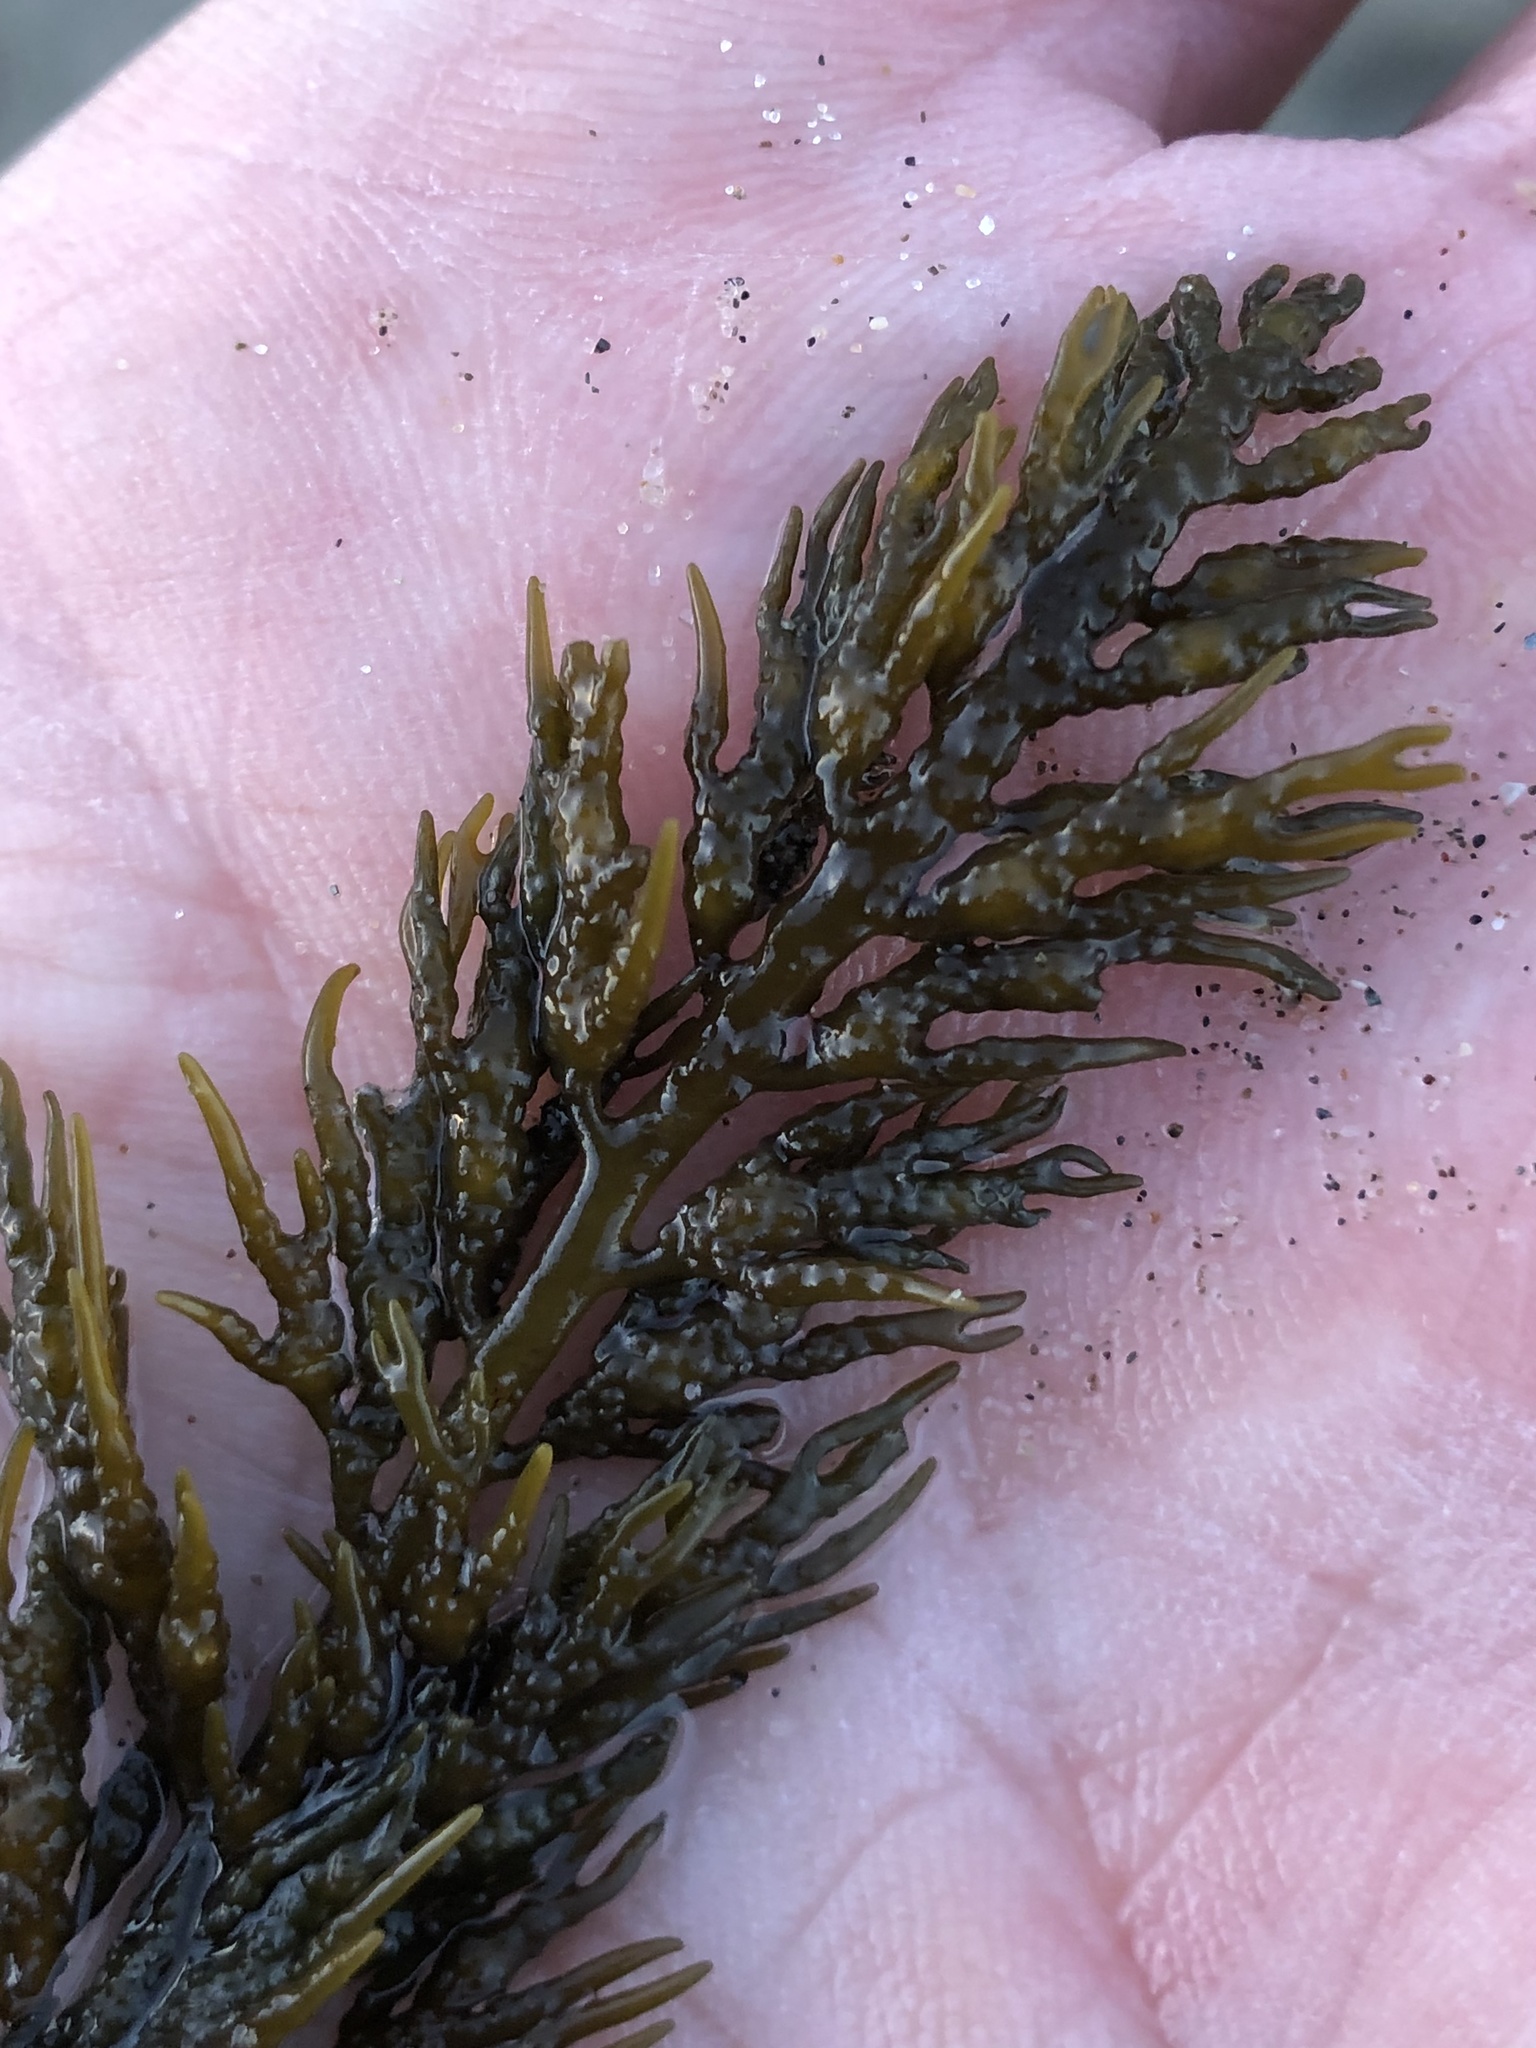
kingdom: Chromista
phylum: Ochrophyta
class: Phaeophyceae
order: Fucales
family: Sargassaceae
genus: Stephanocystis
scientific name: Stephanocystis
